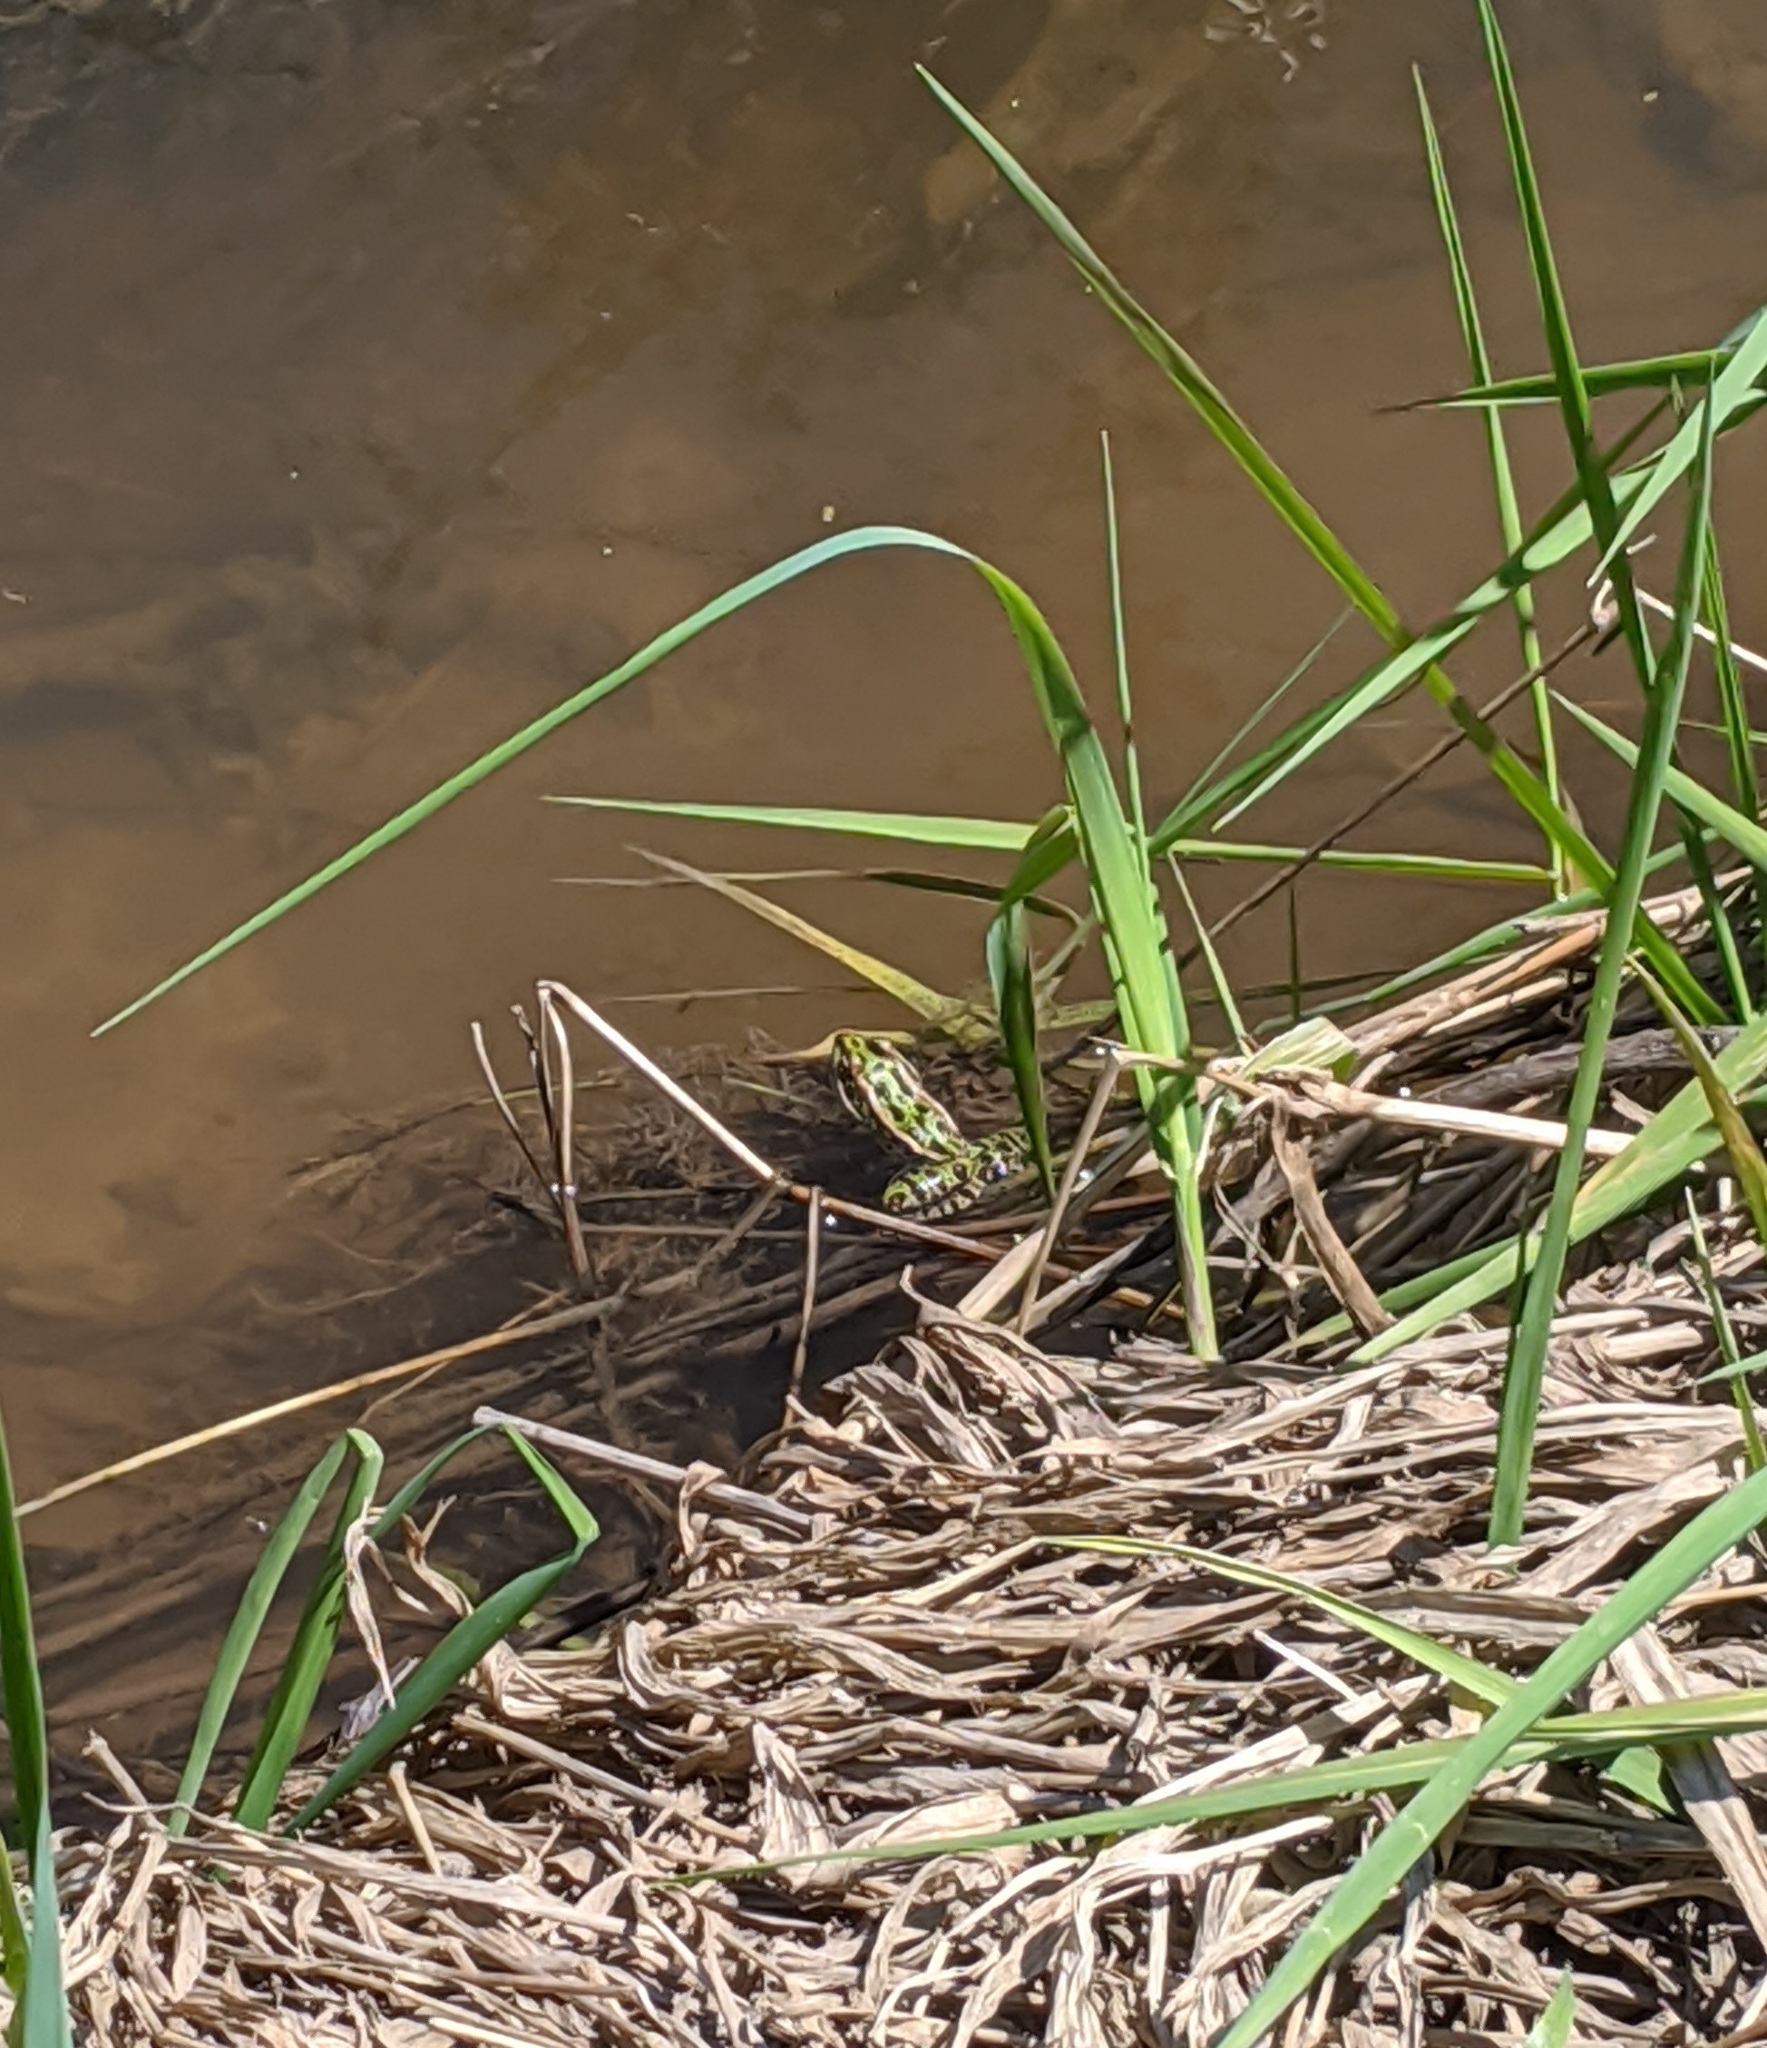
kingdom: Animalia
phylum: Chordata
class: Amphibia
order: Anura
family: Ranidae
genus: Lithobates
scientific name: Lithobates pipiens
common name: Northern leopard frog
